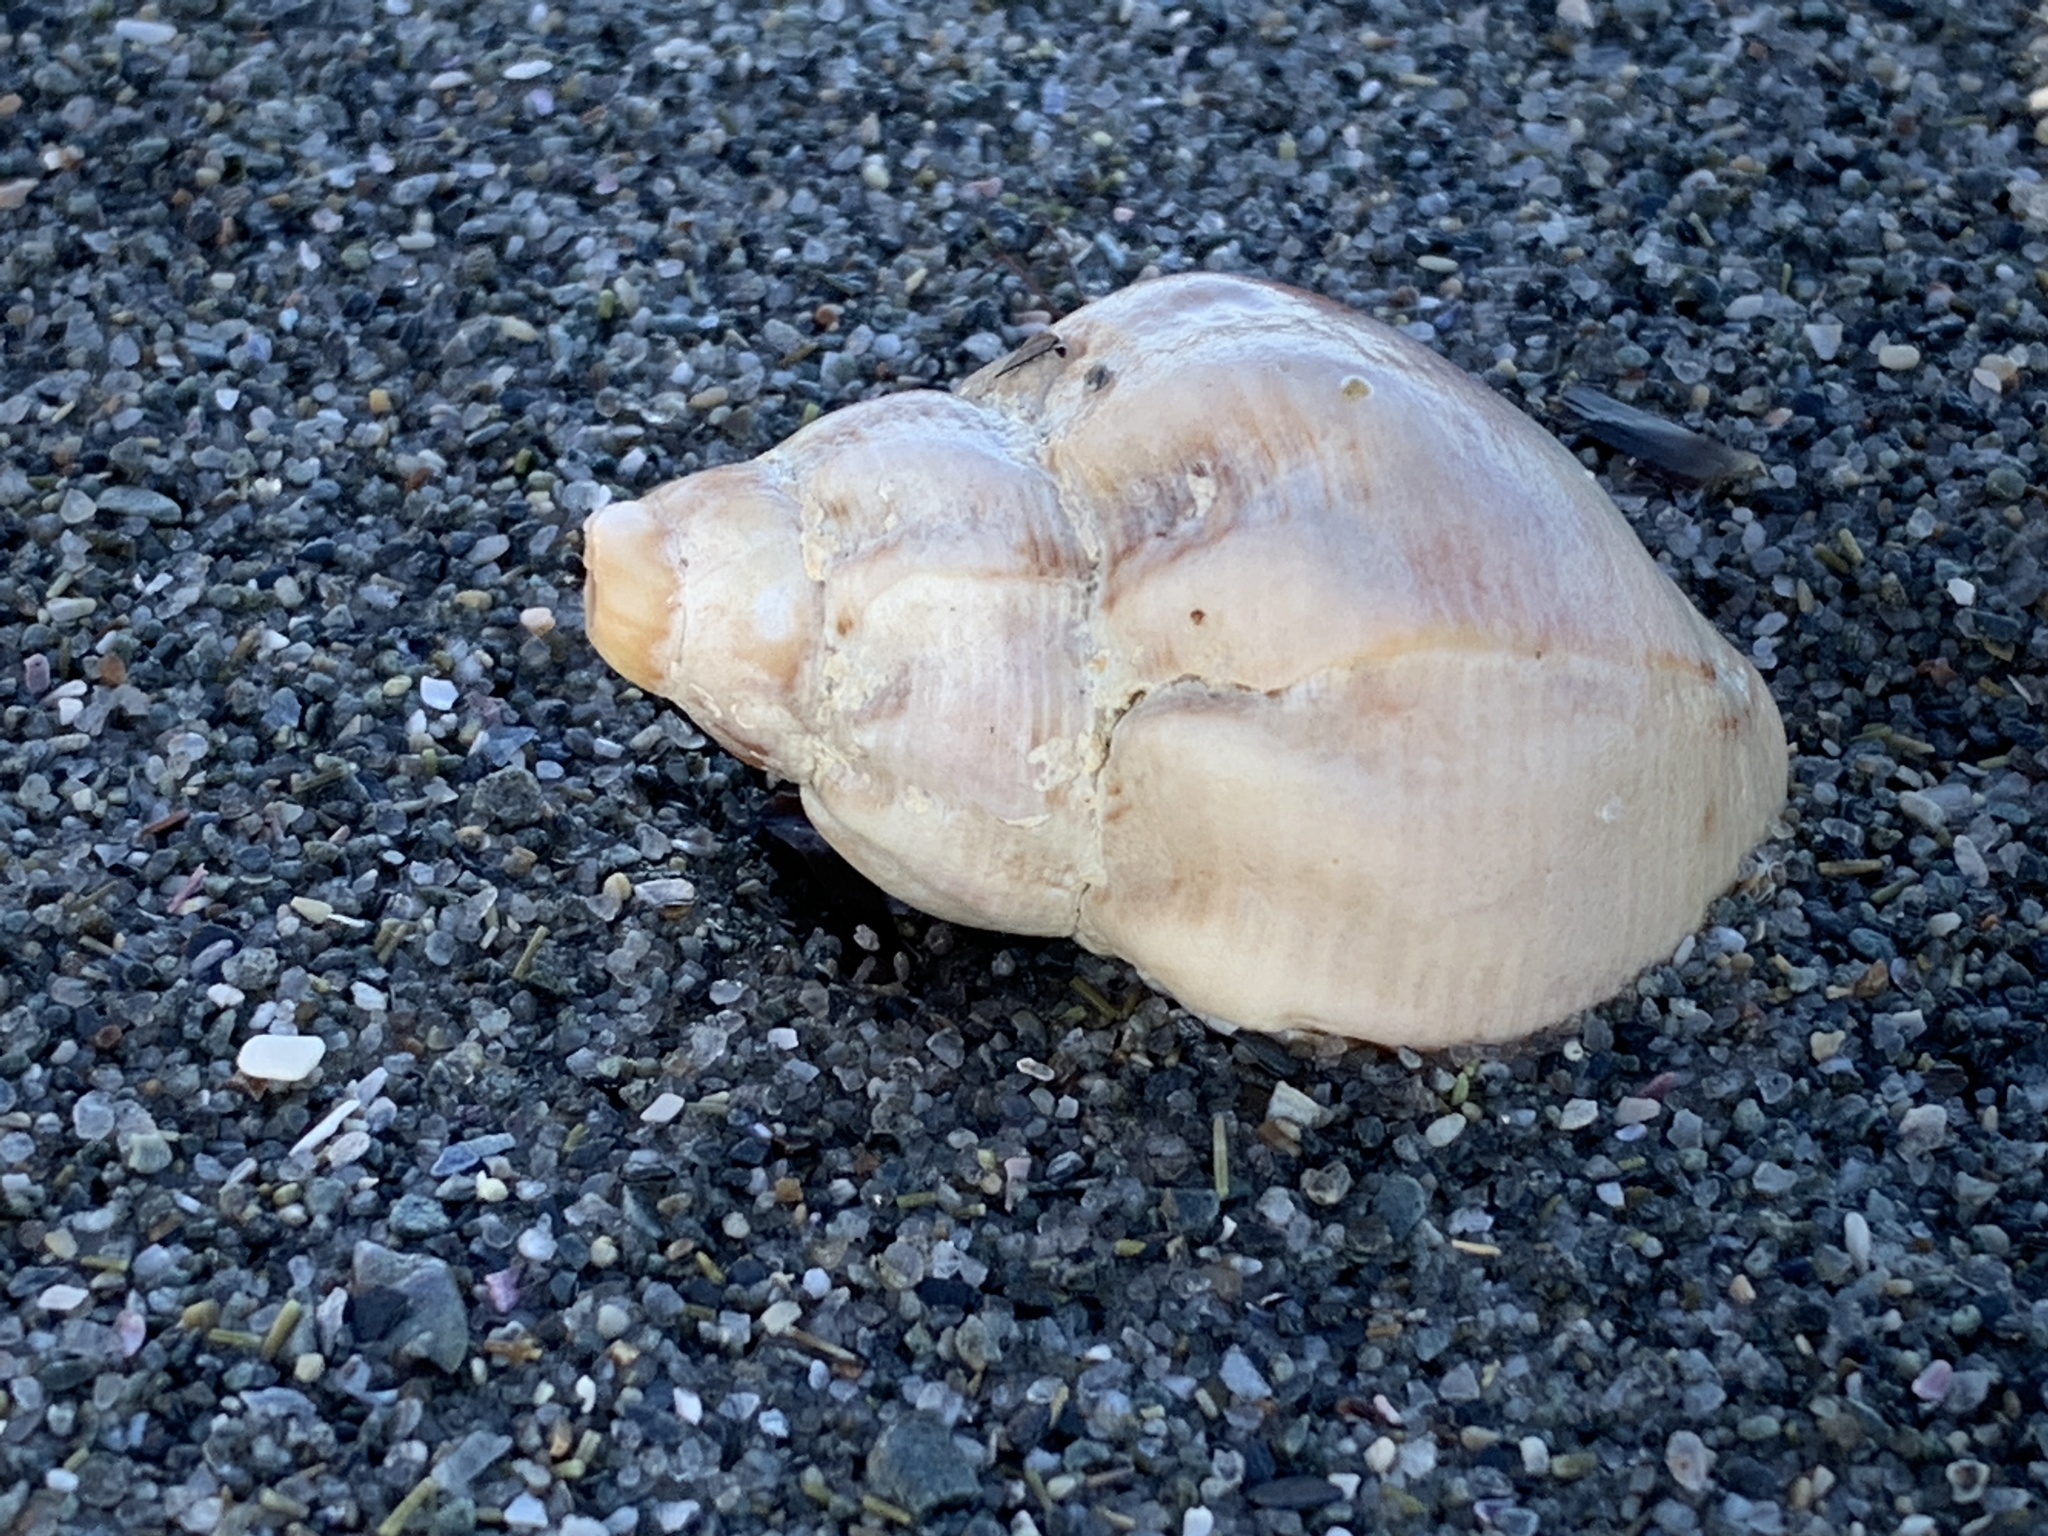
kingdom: Animalia
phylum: Mollusca
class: Gastropoda
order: Neogastropoda
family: Buccinidae
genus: Buccinum
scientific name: Buccinum undatum
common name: Common whelk
